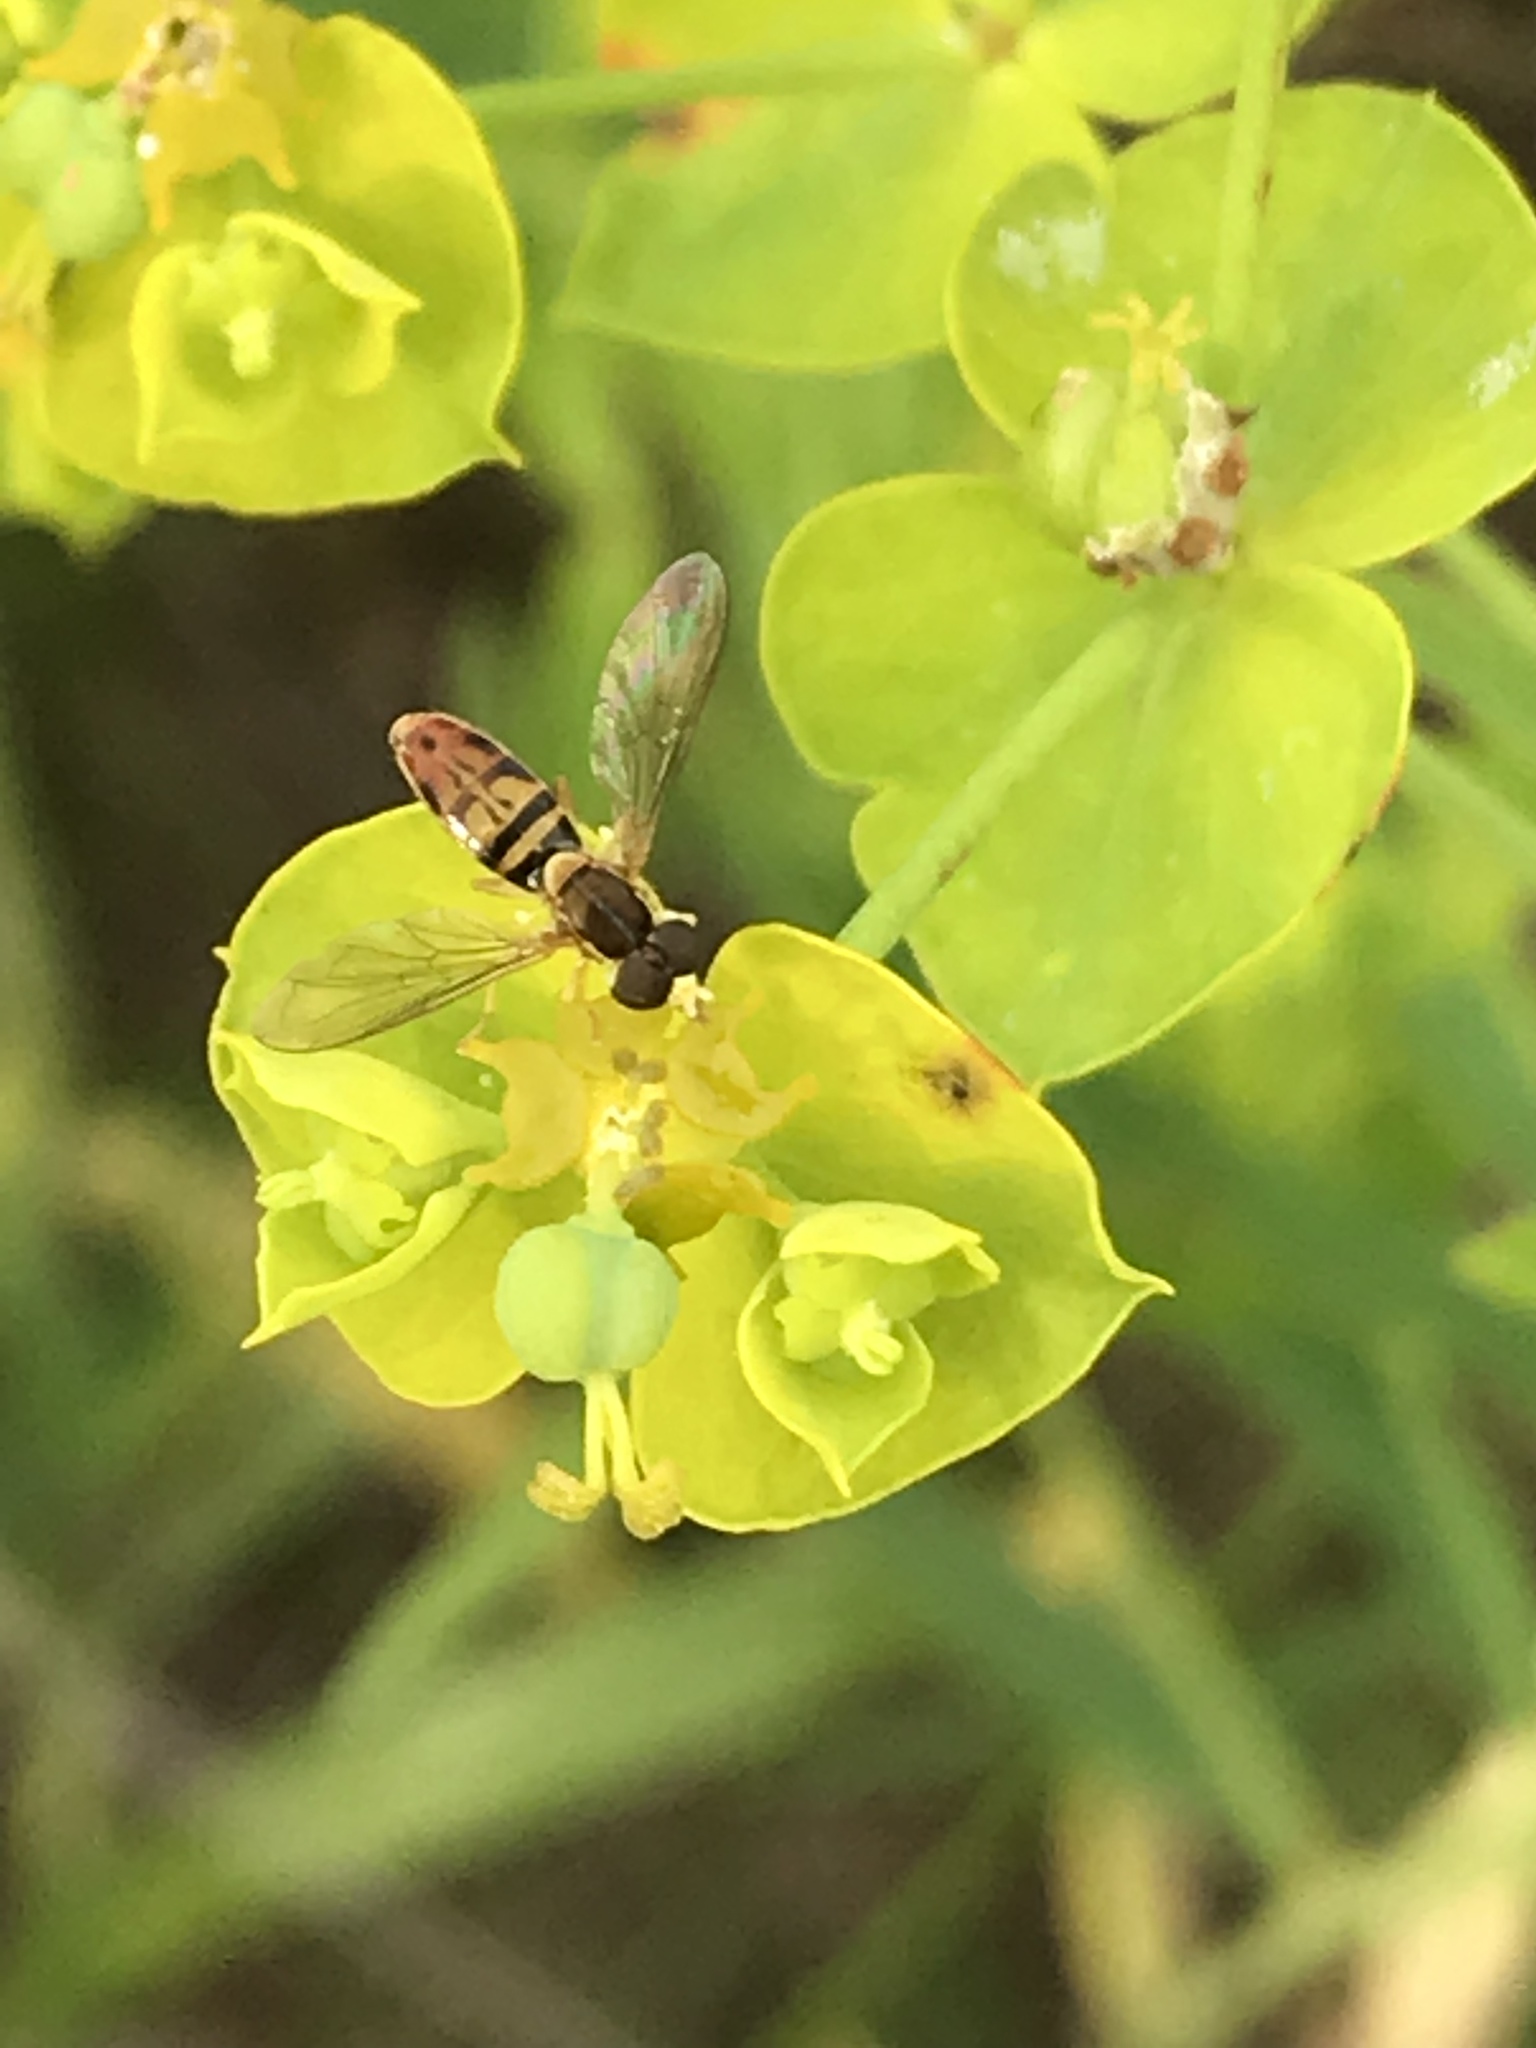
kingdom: Animalia
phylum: Arthropoda
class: Insecta
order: Diptera
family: Syrphidae
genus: Toxomerus
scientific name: Toxomerus marginatus
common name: Syrphid fly
